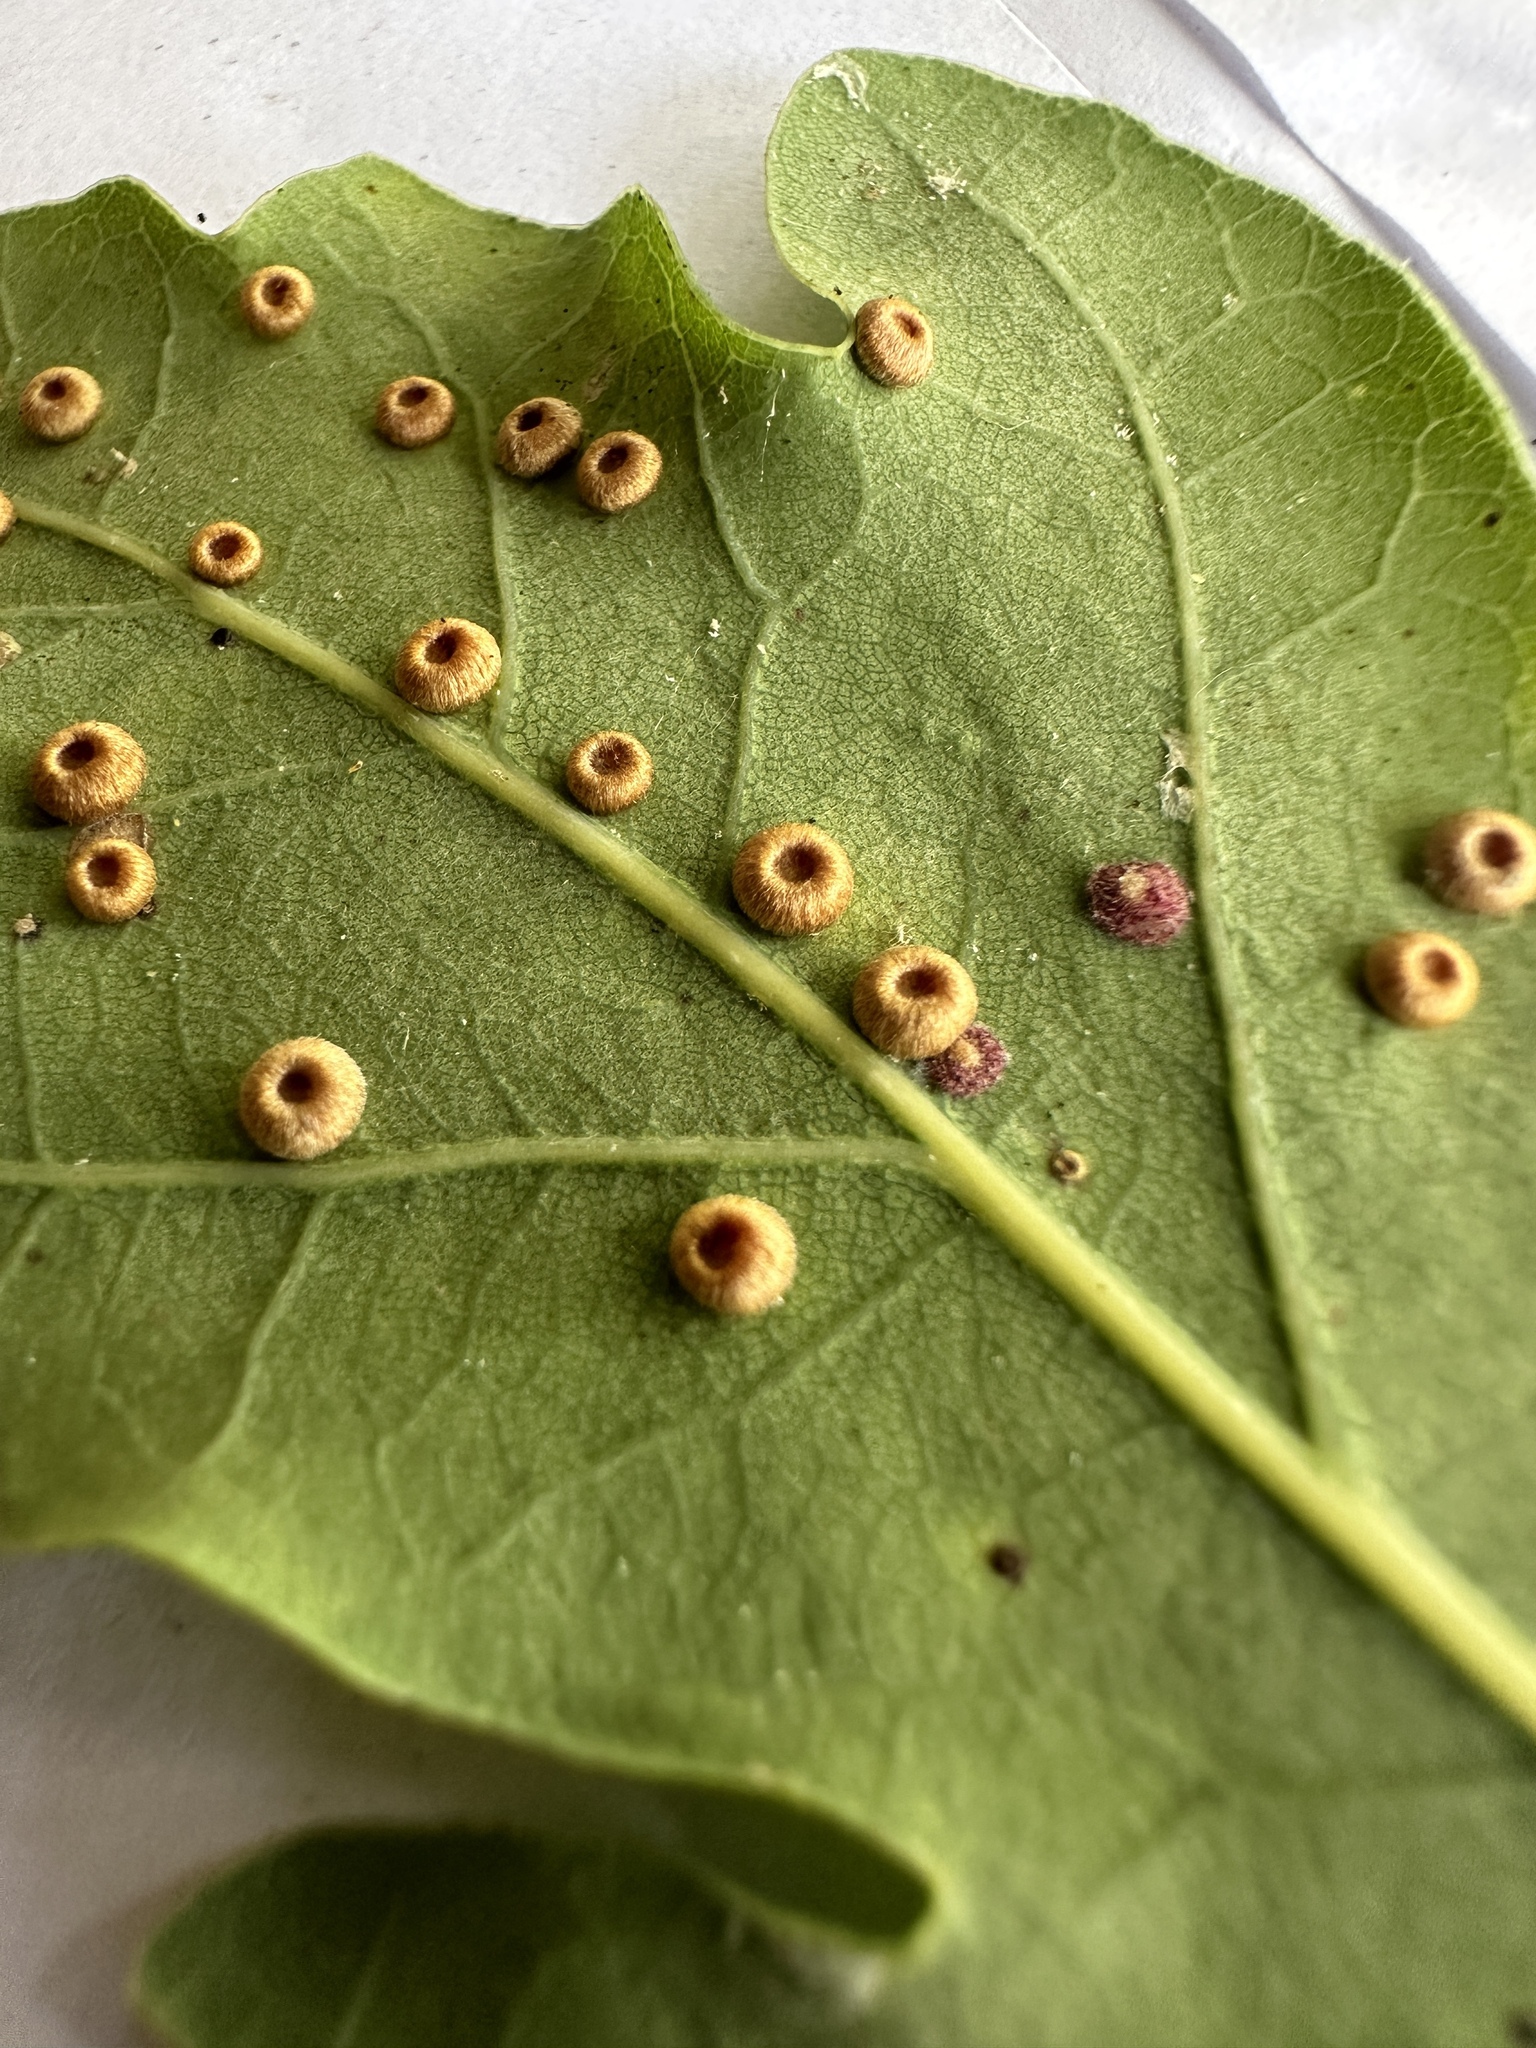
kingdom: Animalia
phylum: Arthropoda
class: Insecta
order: Hymenoptera
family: Cynipidae
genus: Neuroterus
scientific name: Neuroterus numismalis
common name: Silk-button spangle gall
